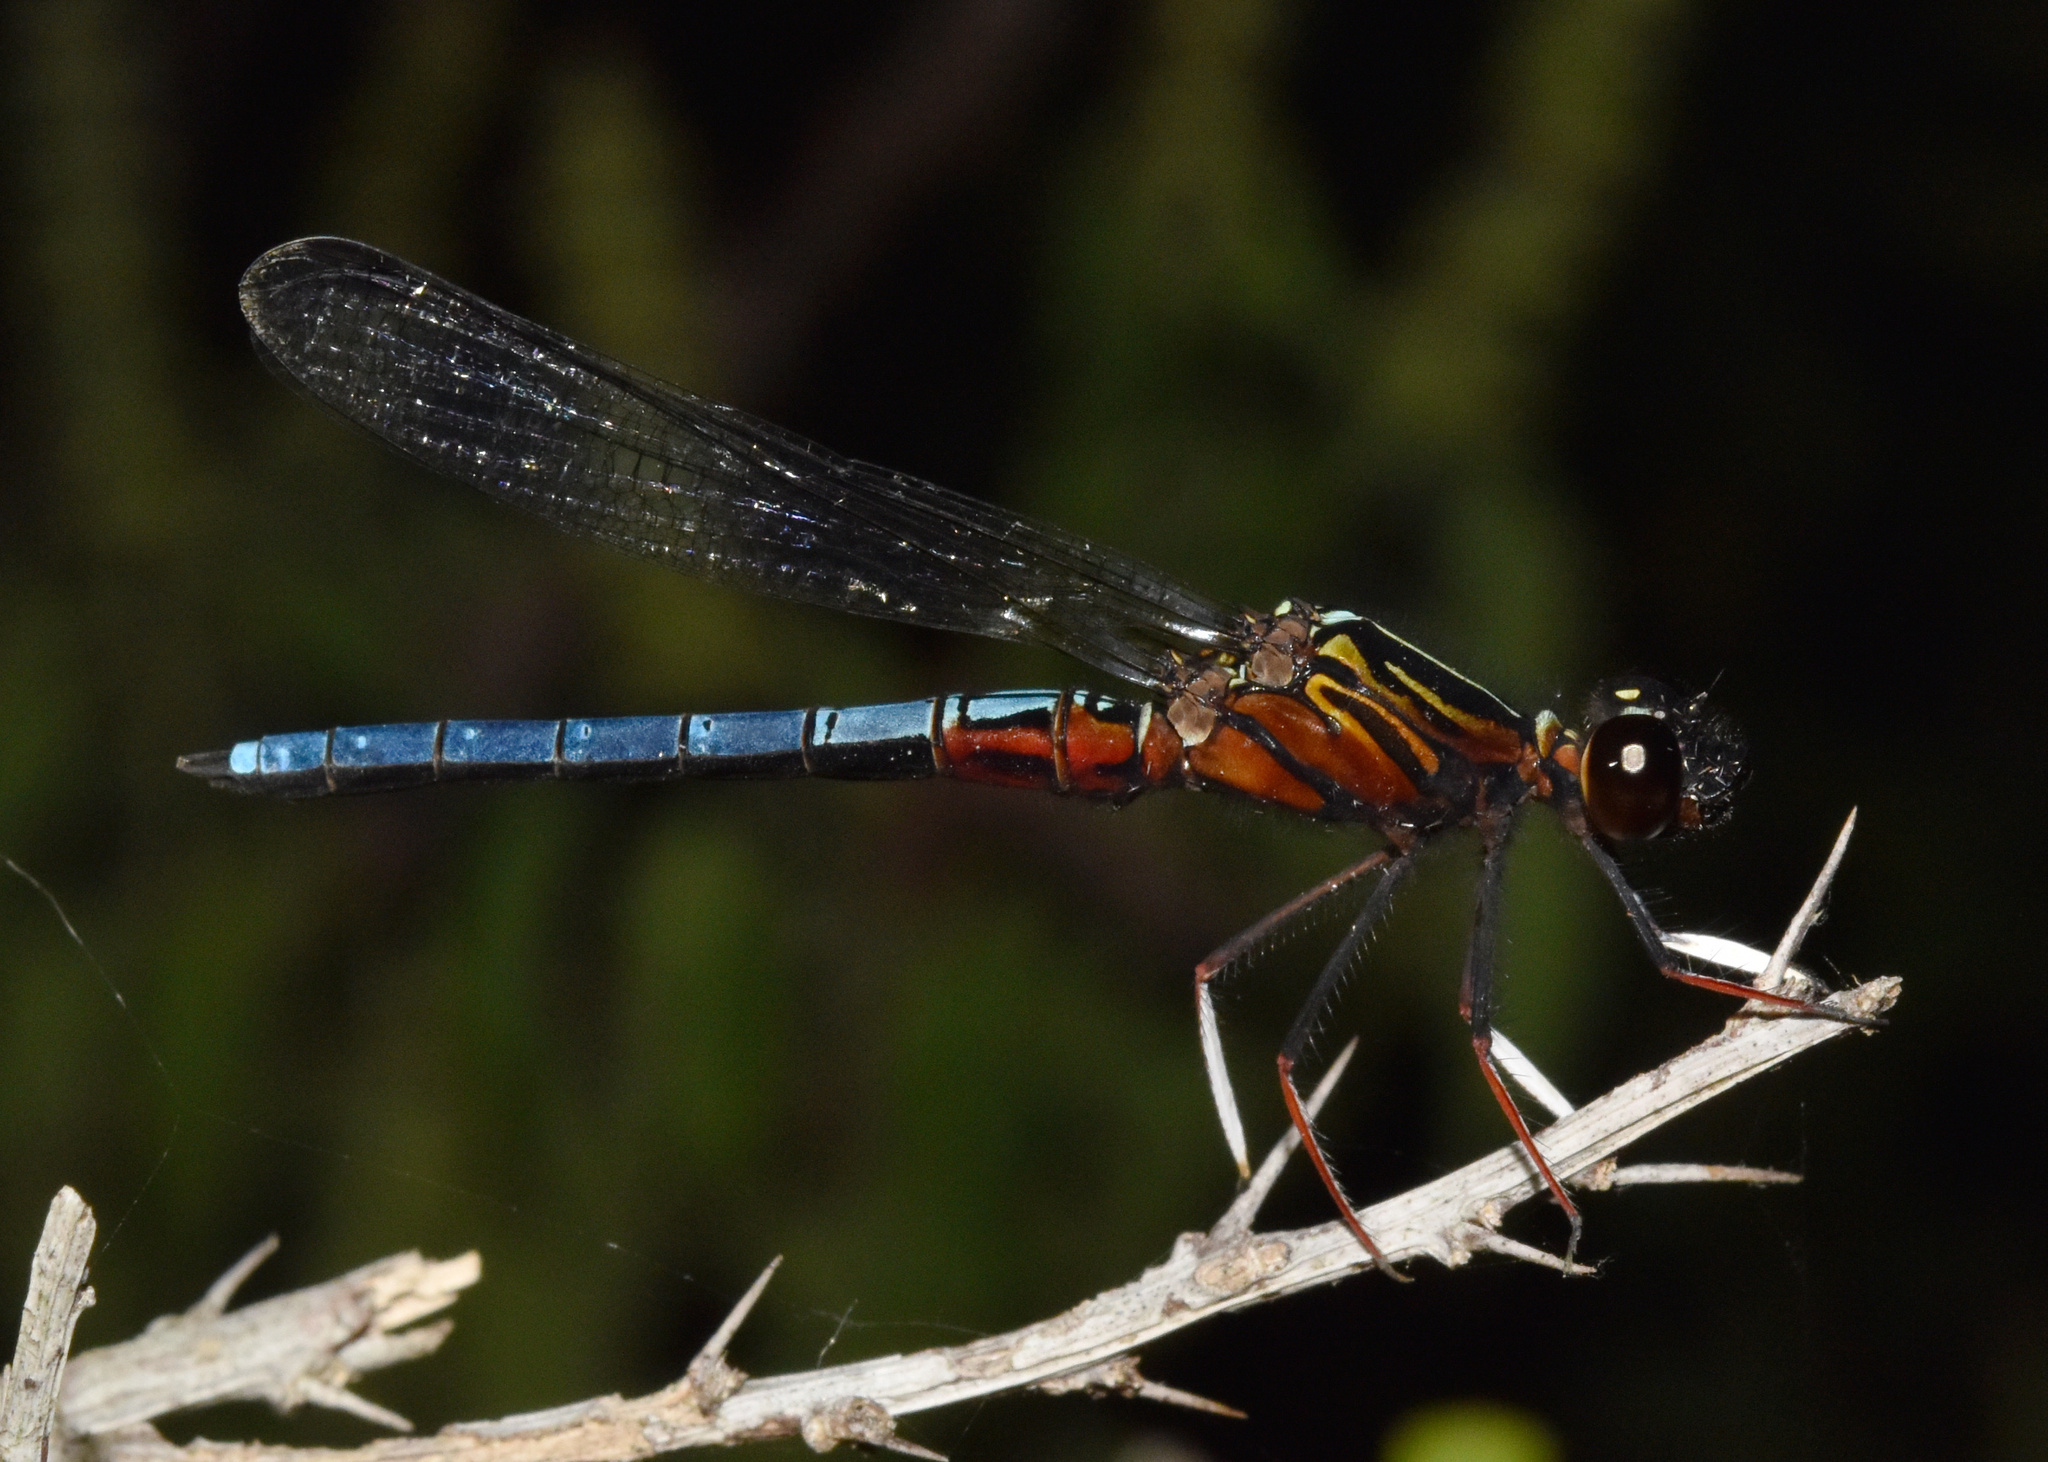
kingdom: Animalia
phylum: Arthropoda
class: Insecta
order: Odonata
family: Chlorocyphidae
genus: Platycypha
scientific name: Platycypha caligata
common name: Dancing jewel
